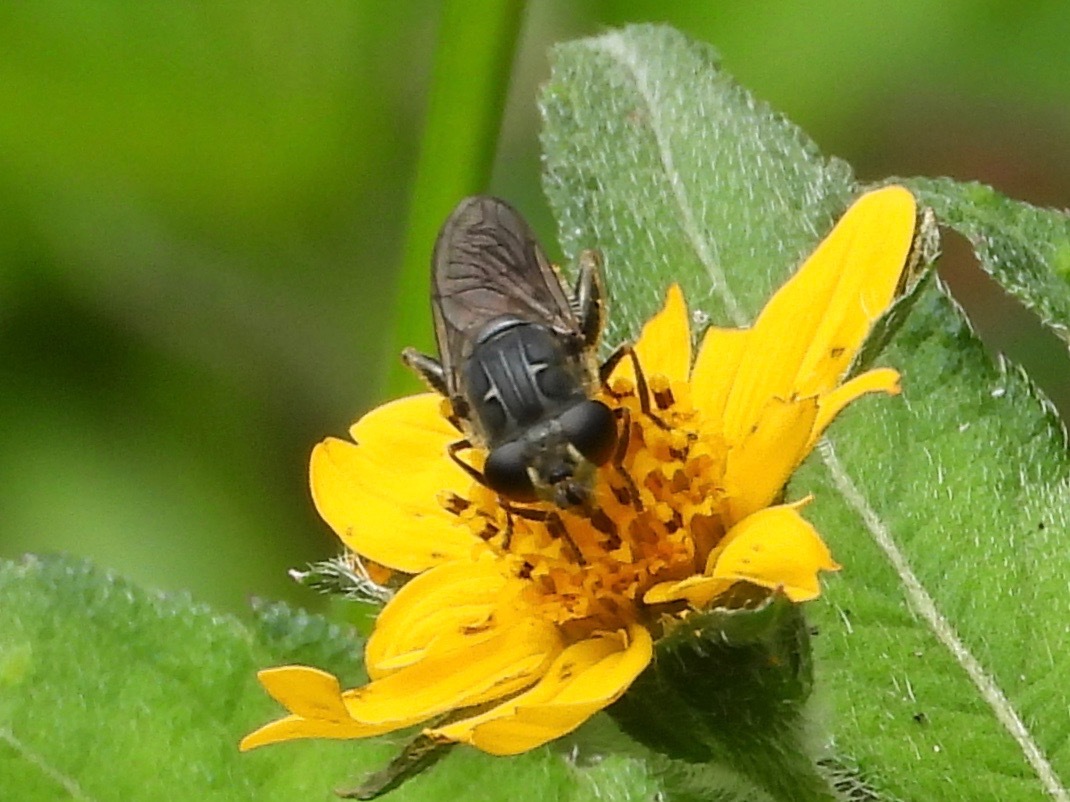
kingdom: Animalia
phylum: Arthropoda
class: Insecta
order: Diptera
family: Syrphidae
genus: Asemosyrphus
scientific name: Asemosyrphus
